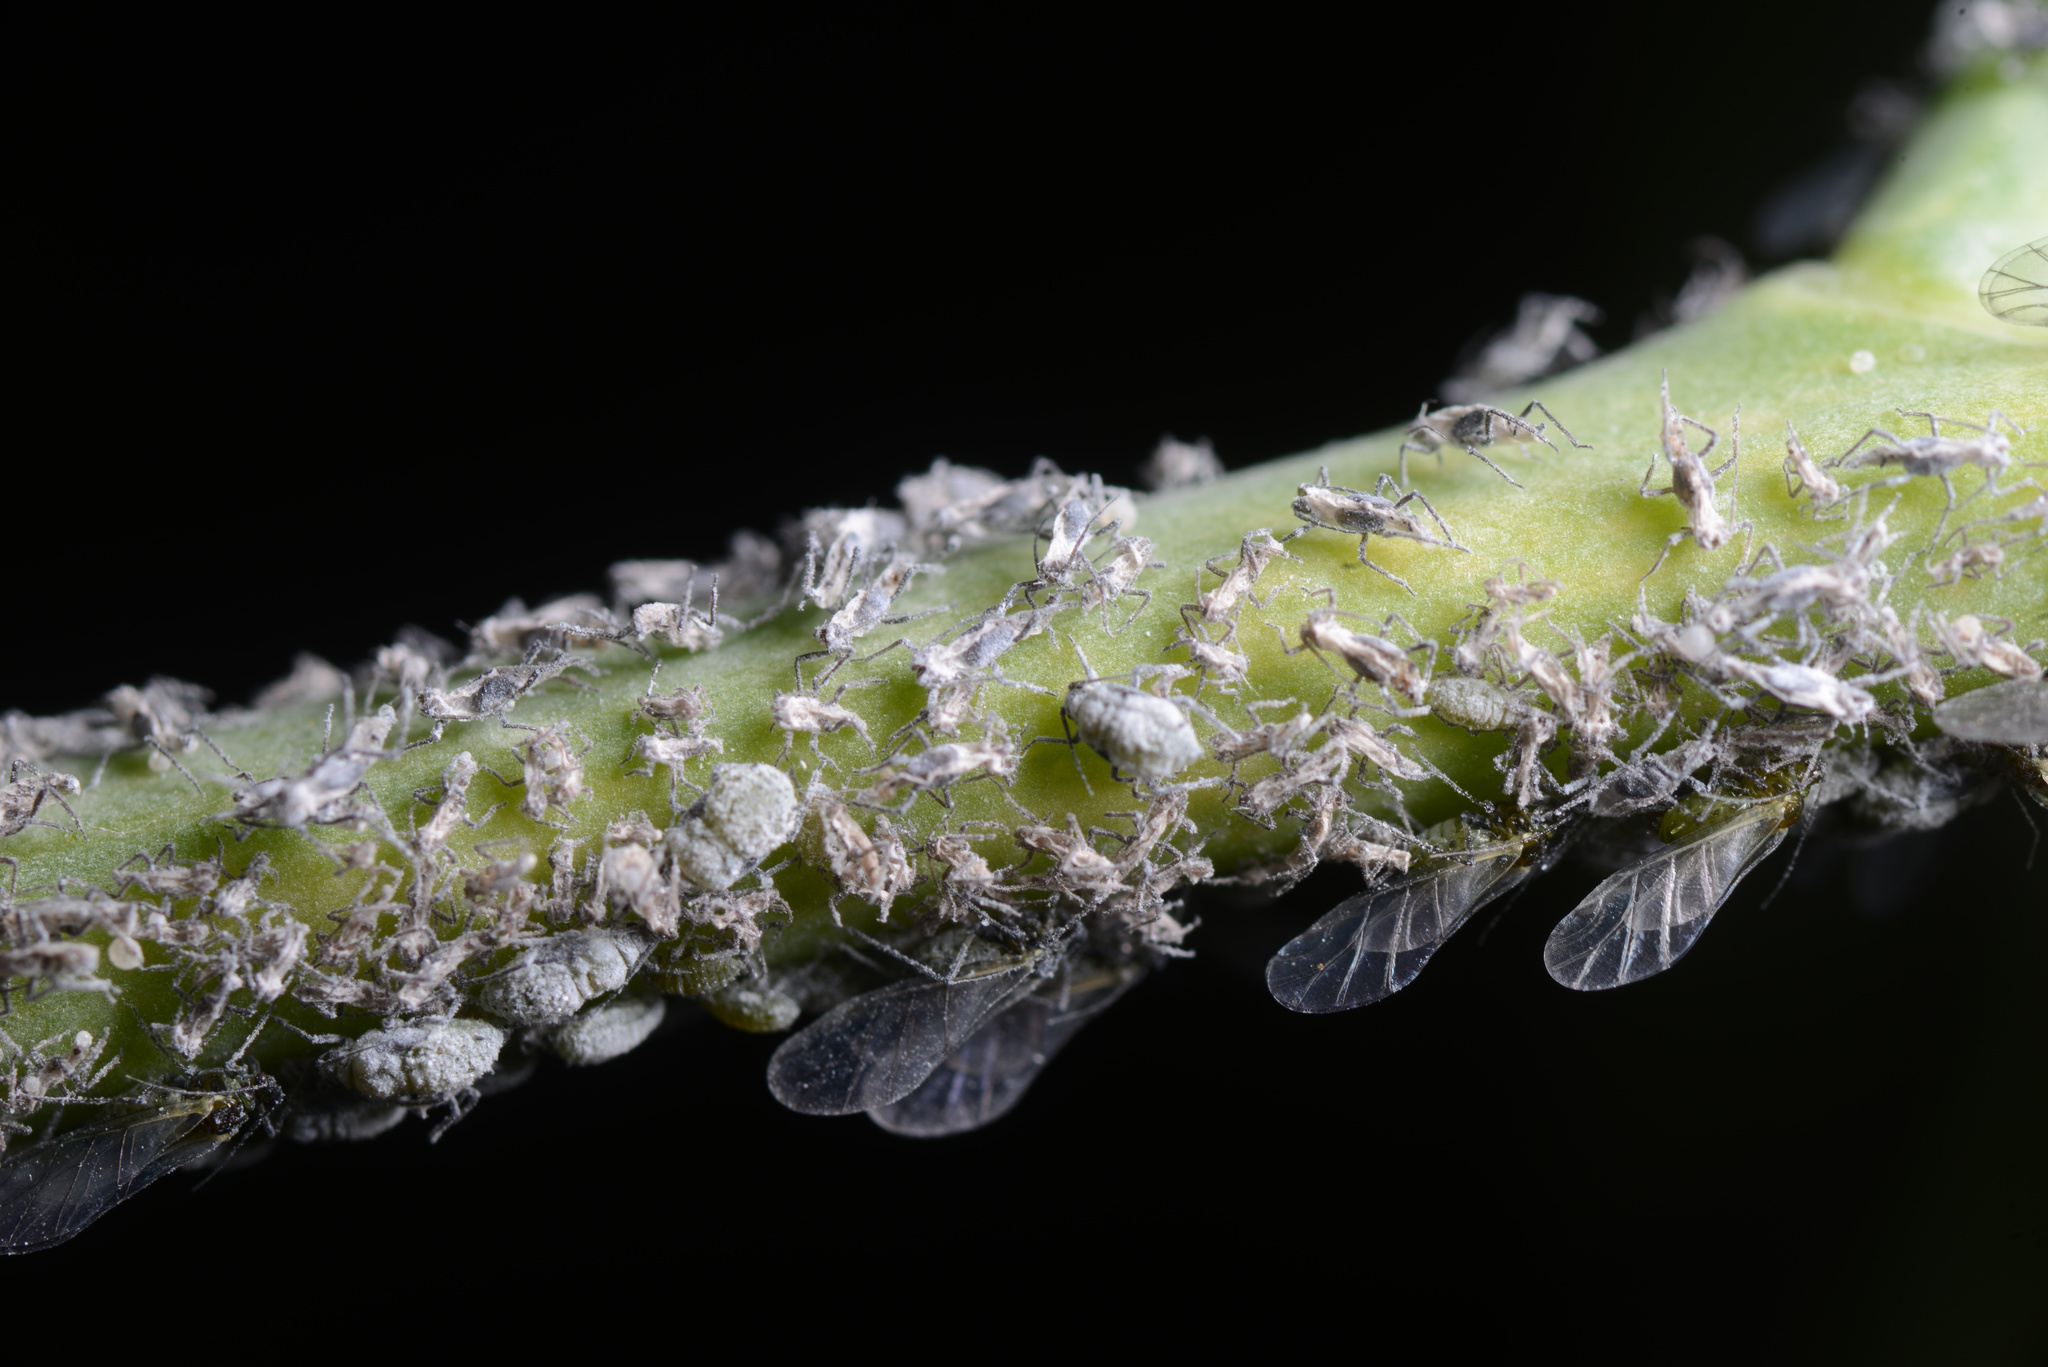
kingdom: Animalia
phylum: Arthropoda
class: Insecta
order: Hemiptera
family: Aphididae
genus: Brevicoryne
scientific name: Brevicoryne brassicae
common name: Cabbage aphid
